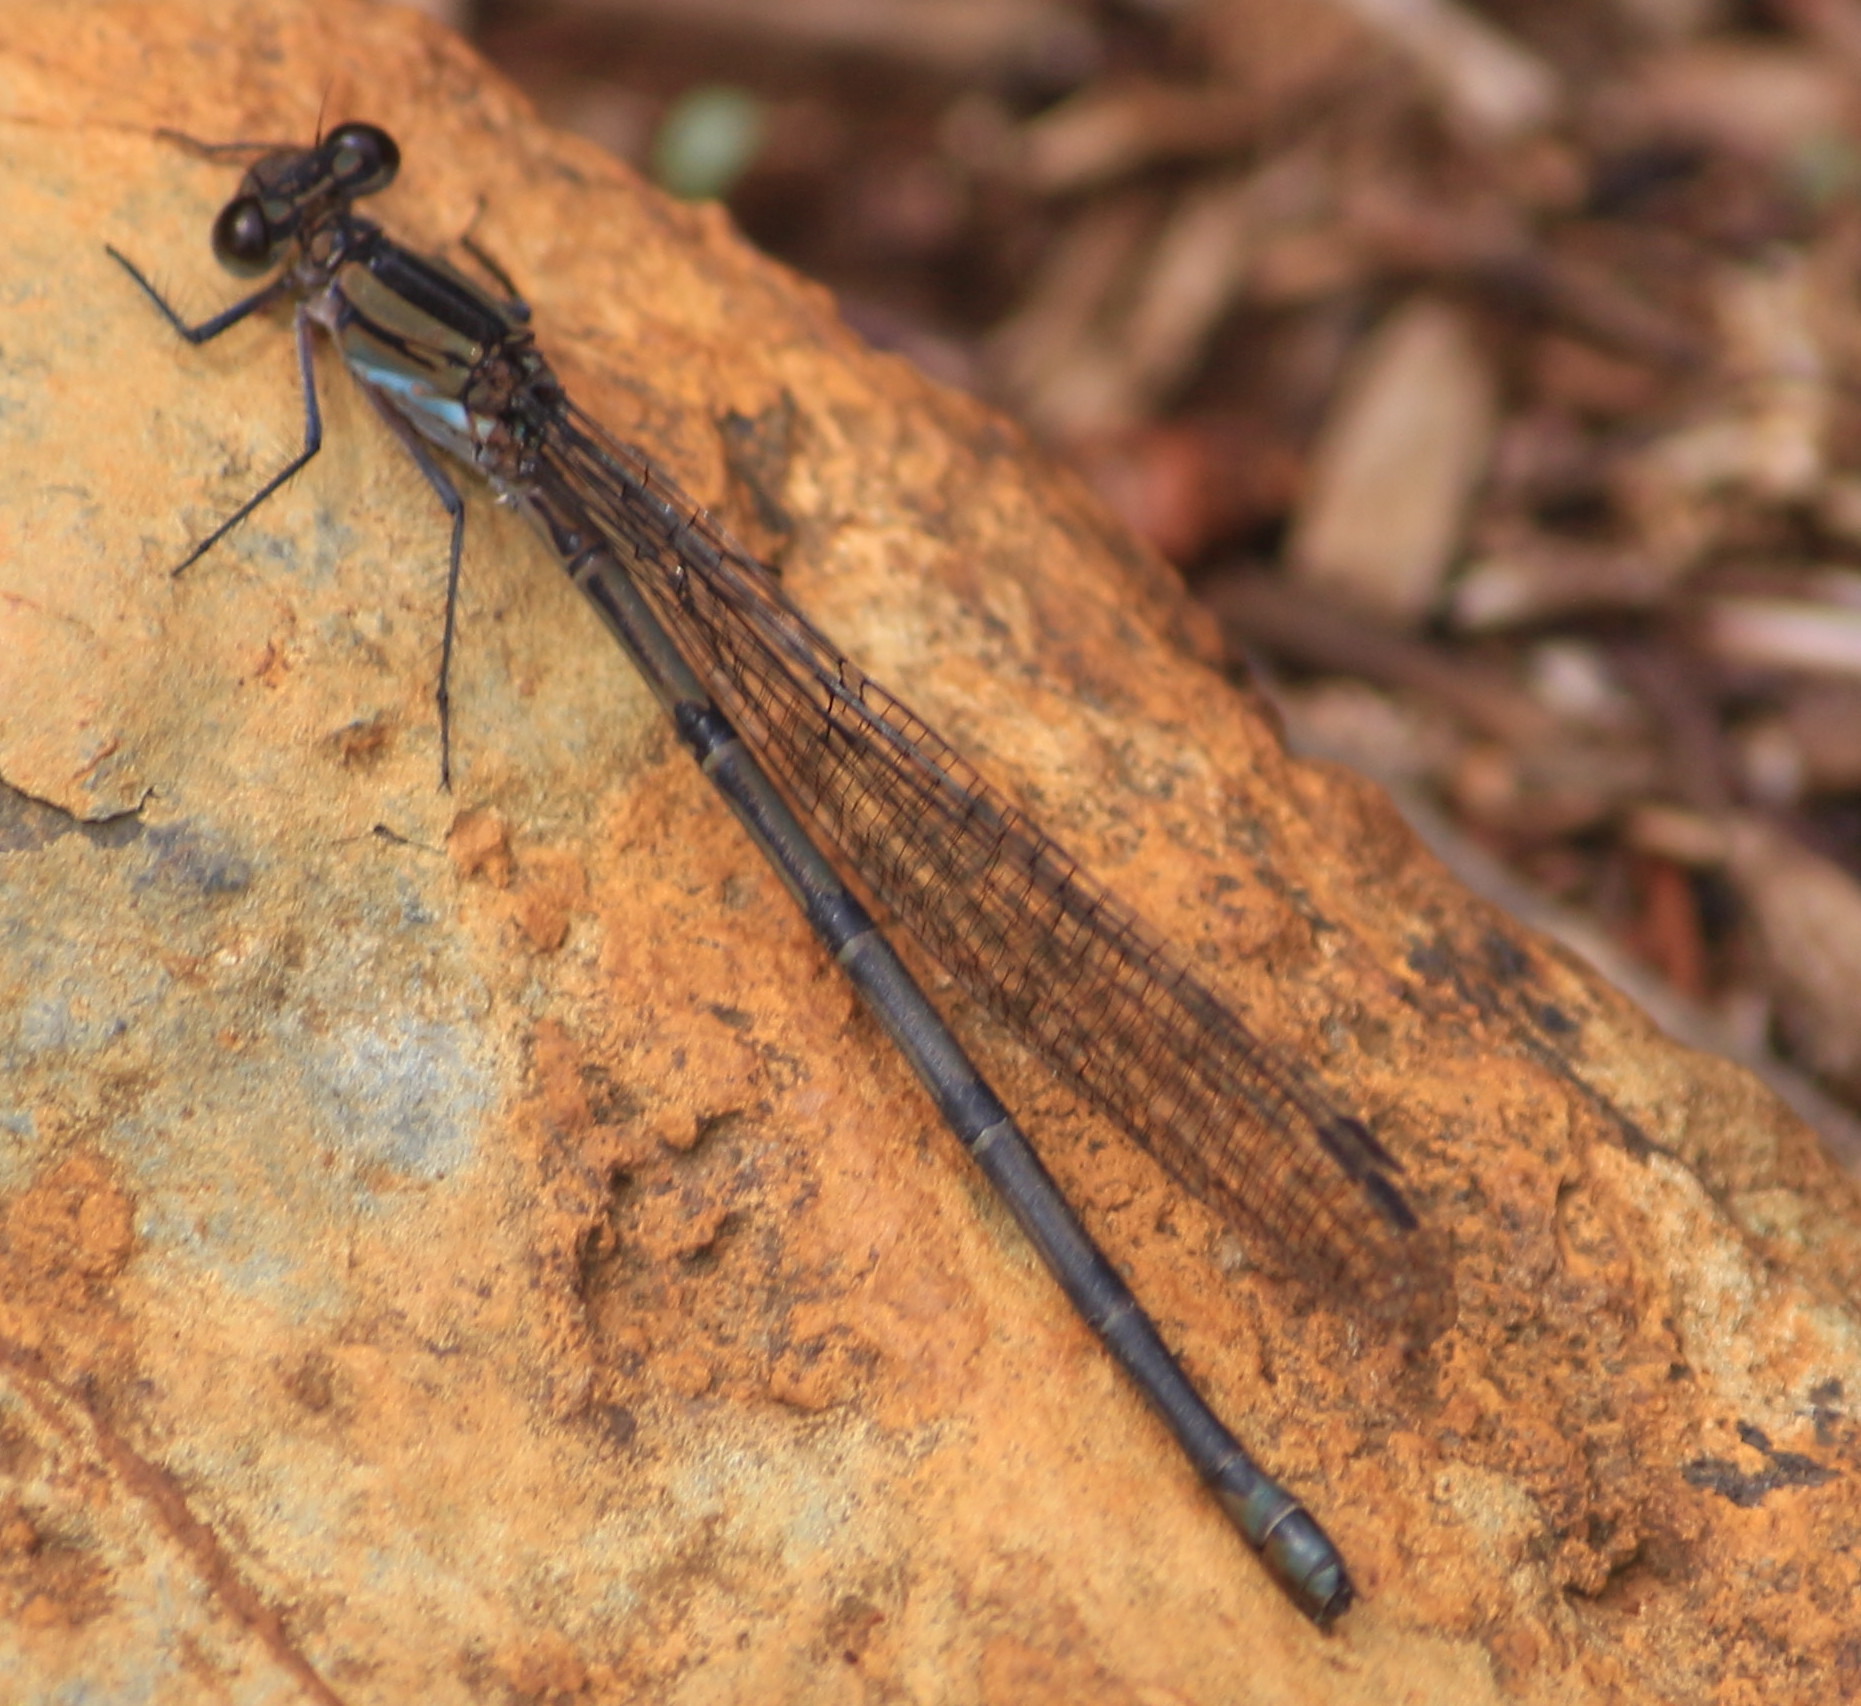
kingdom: Animalia
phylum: Arthropoda
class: Insecta
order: Odonata
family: Coenagrionidae
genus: Argia
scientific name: Argia chelata
